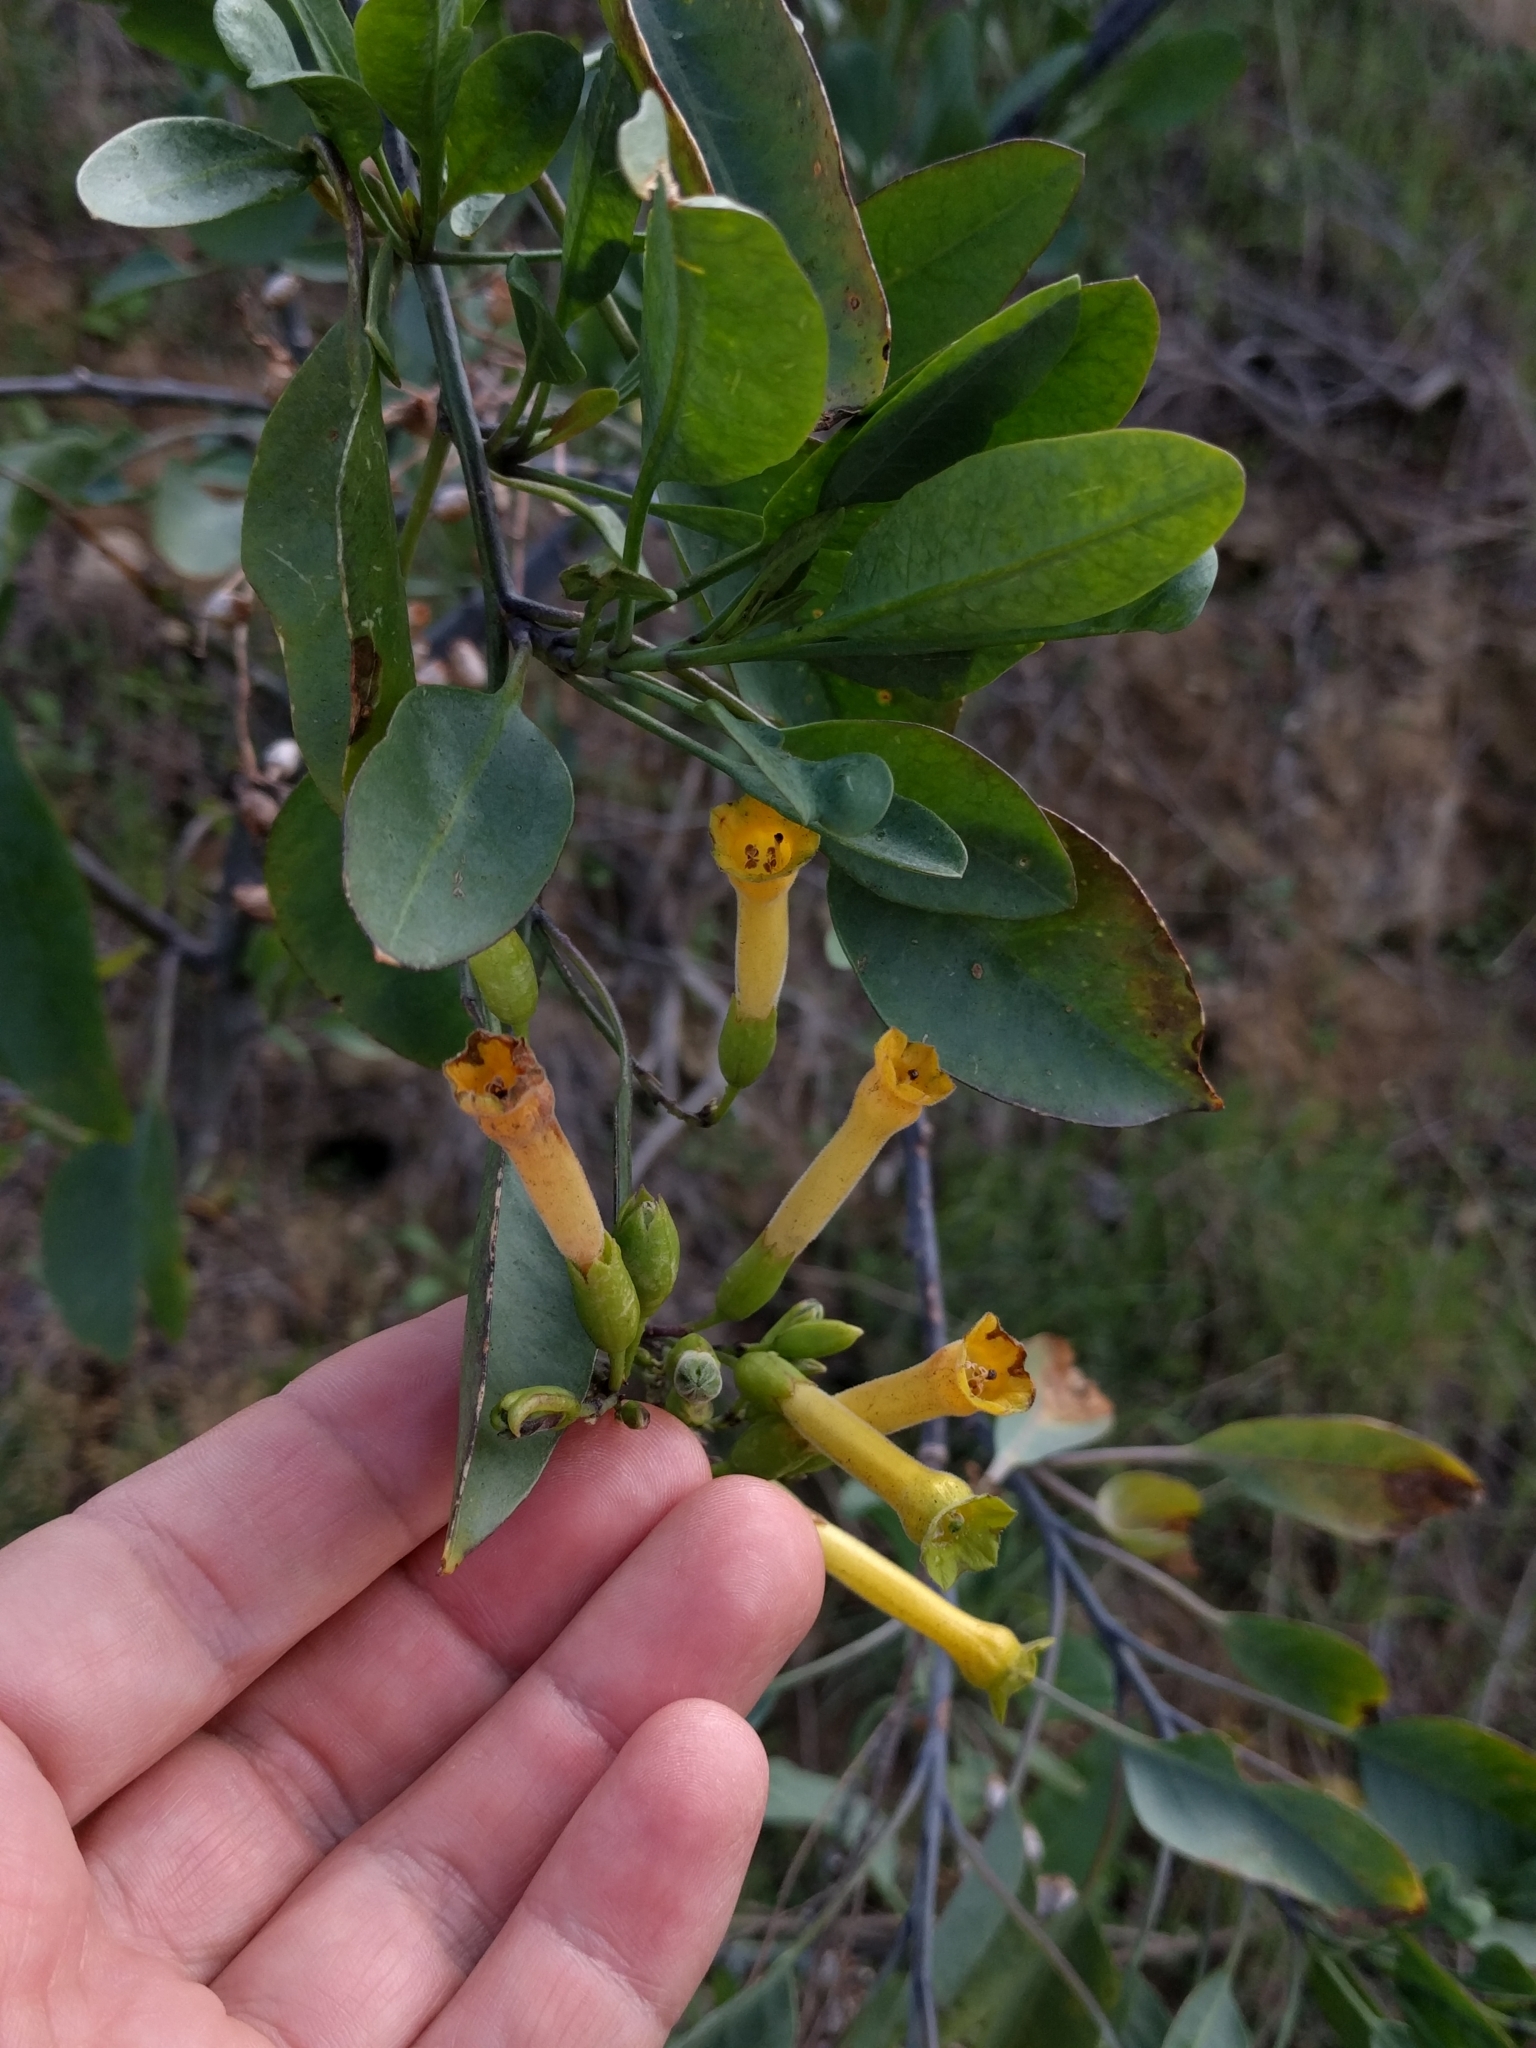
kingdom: Plantae
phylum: Tracheophyta
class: Magnoliopsida
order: Solanales
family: Solanaceae
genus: Nicotiana
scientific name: Nicotiana glauca
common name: Tree tobacco
